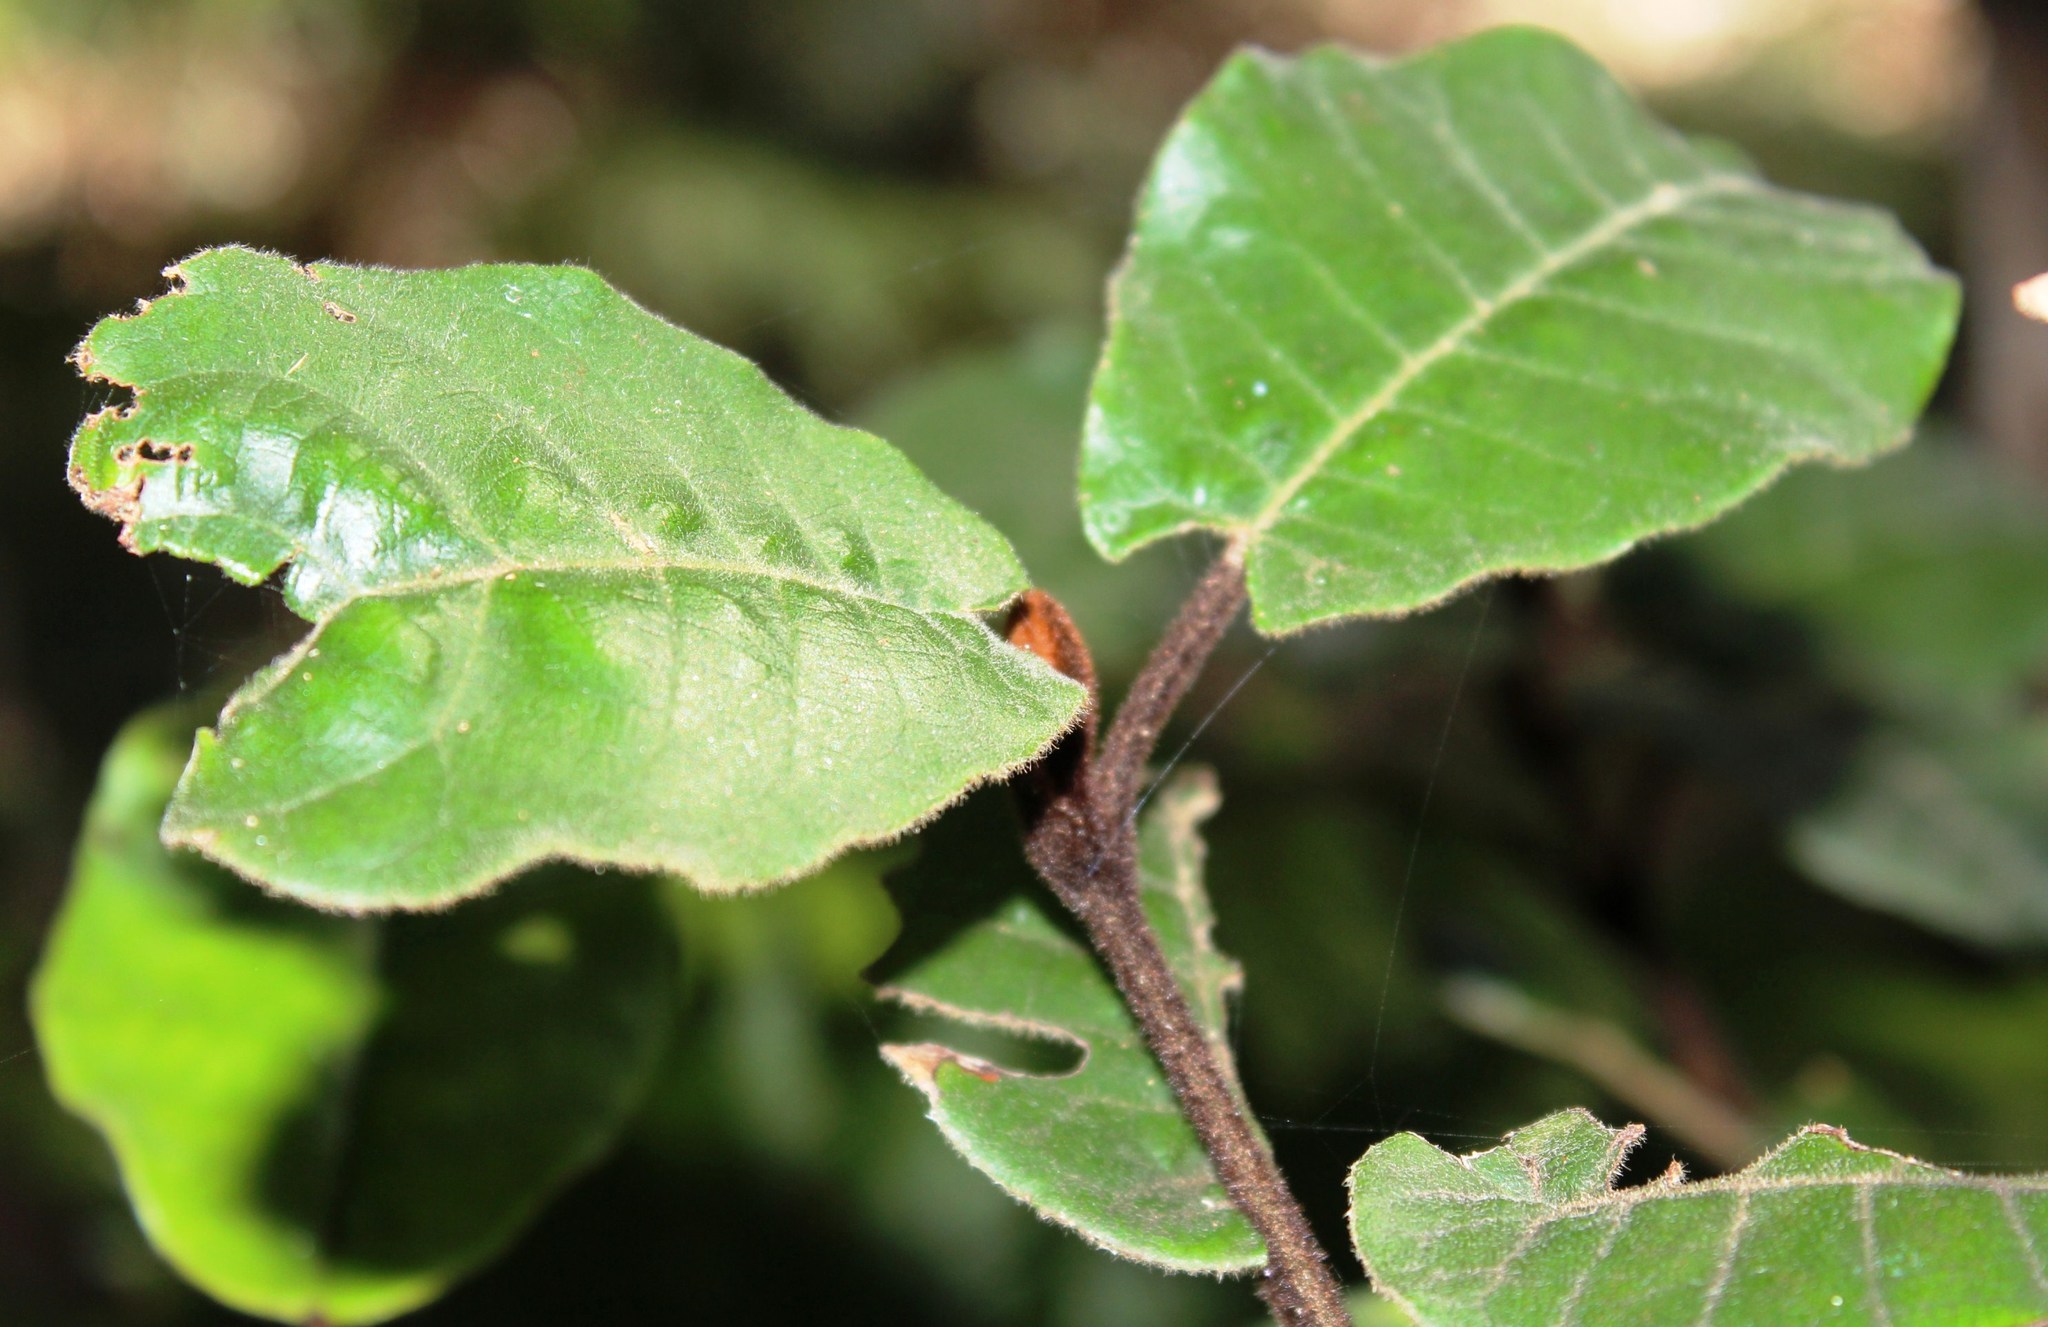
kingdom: Plantae
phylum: Tracheophyta
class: Magnoliopsida
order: Saxifragales
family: Hamamelidaceae
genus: Trichocladus
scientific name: Trichocladus crinitus
